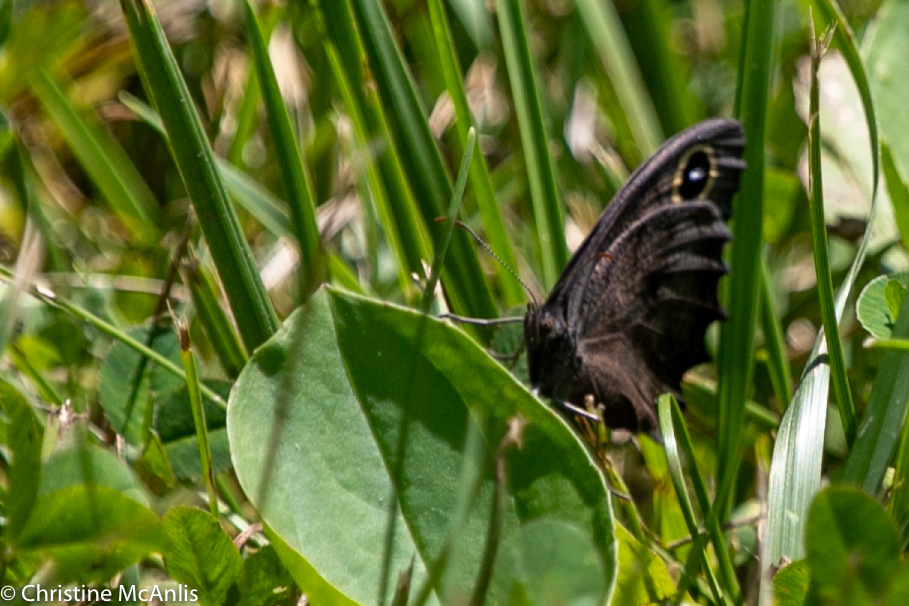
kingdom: Animalia
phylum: Arthropoda
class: Insecta
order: Lepidoptera
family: Nymphalidae
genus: Cercyonis
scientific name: Cercyonis pegala
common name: Common wood-nymph
